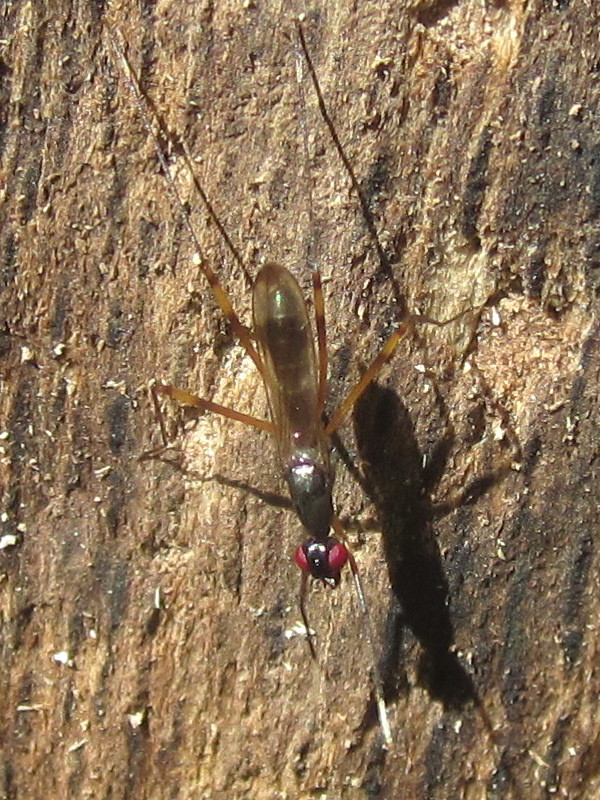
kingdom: Animalia
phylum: Arthropoda
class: Insecta
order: Diptera
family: Micropezidae
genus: Rainieria
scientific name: Rainieria antennaepes
